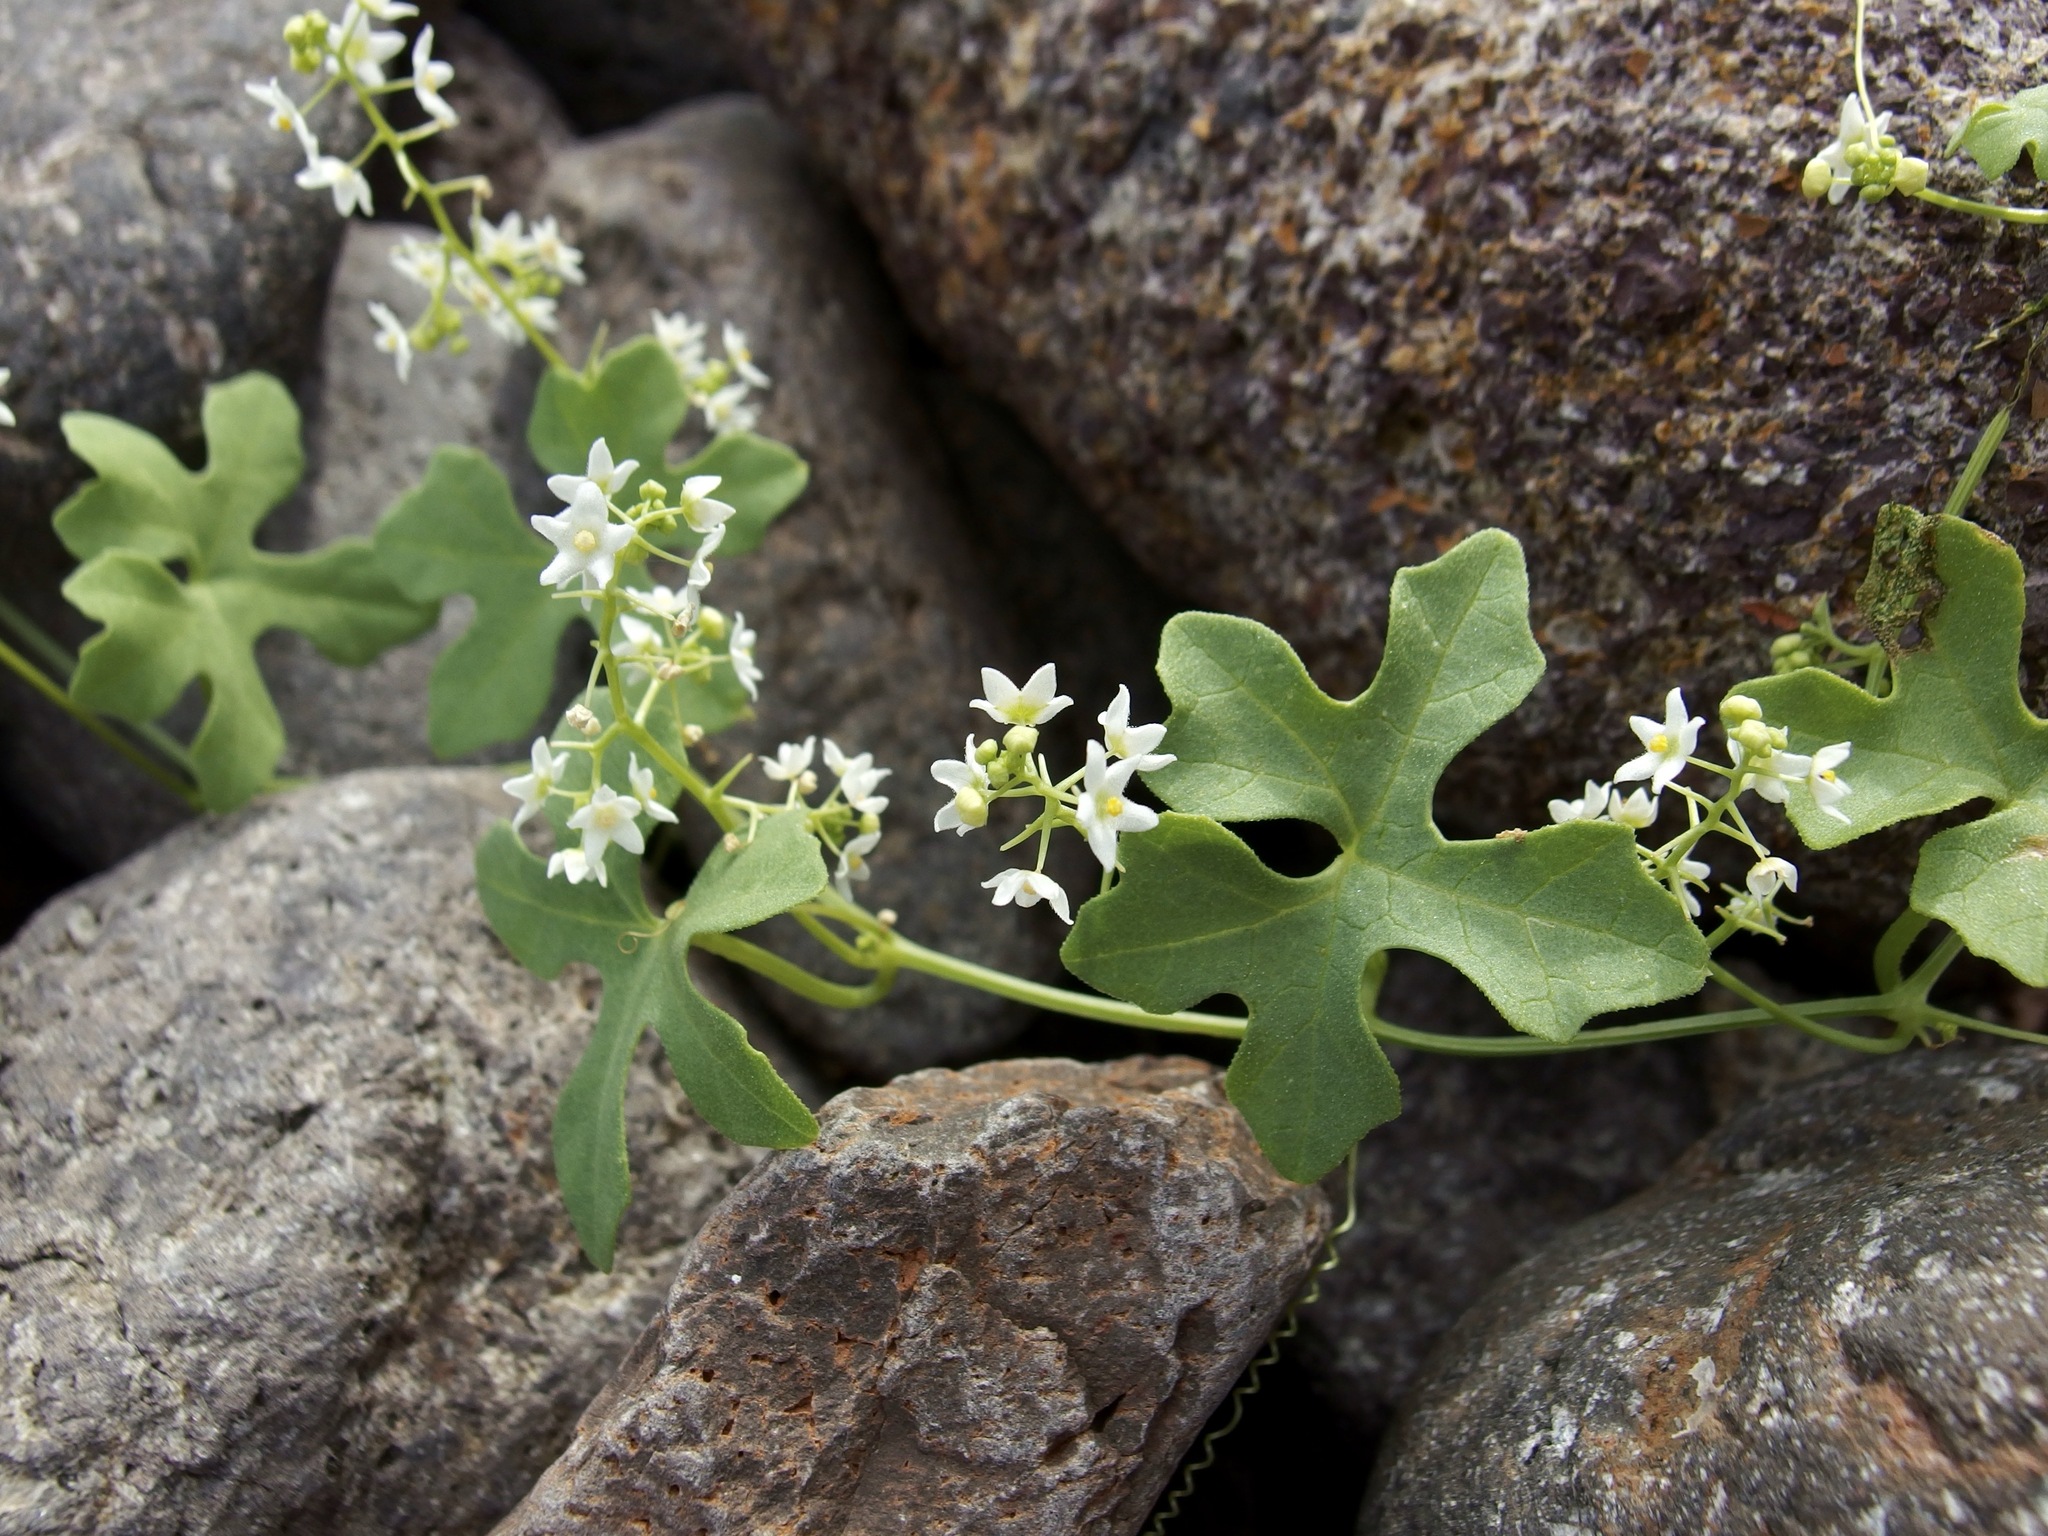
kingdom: Plantae
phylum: Tracheophyta
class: Magnoliopsida
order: Cucurbitales
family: Cucurbitaceae
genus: Echinopepon
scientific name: Echinopepon insularis
